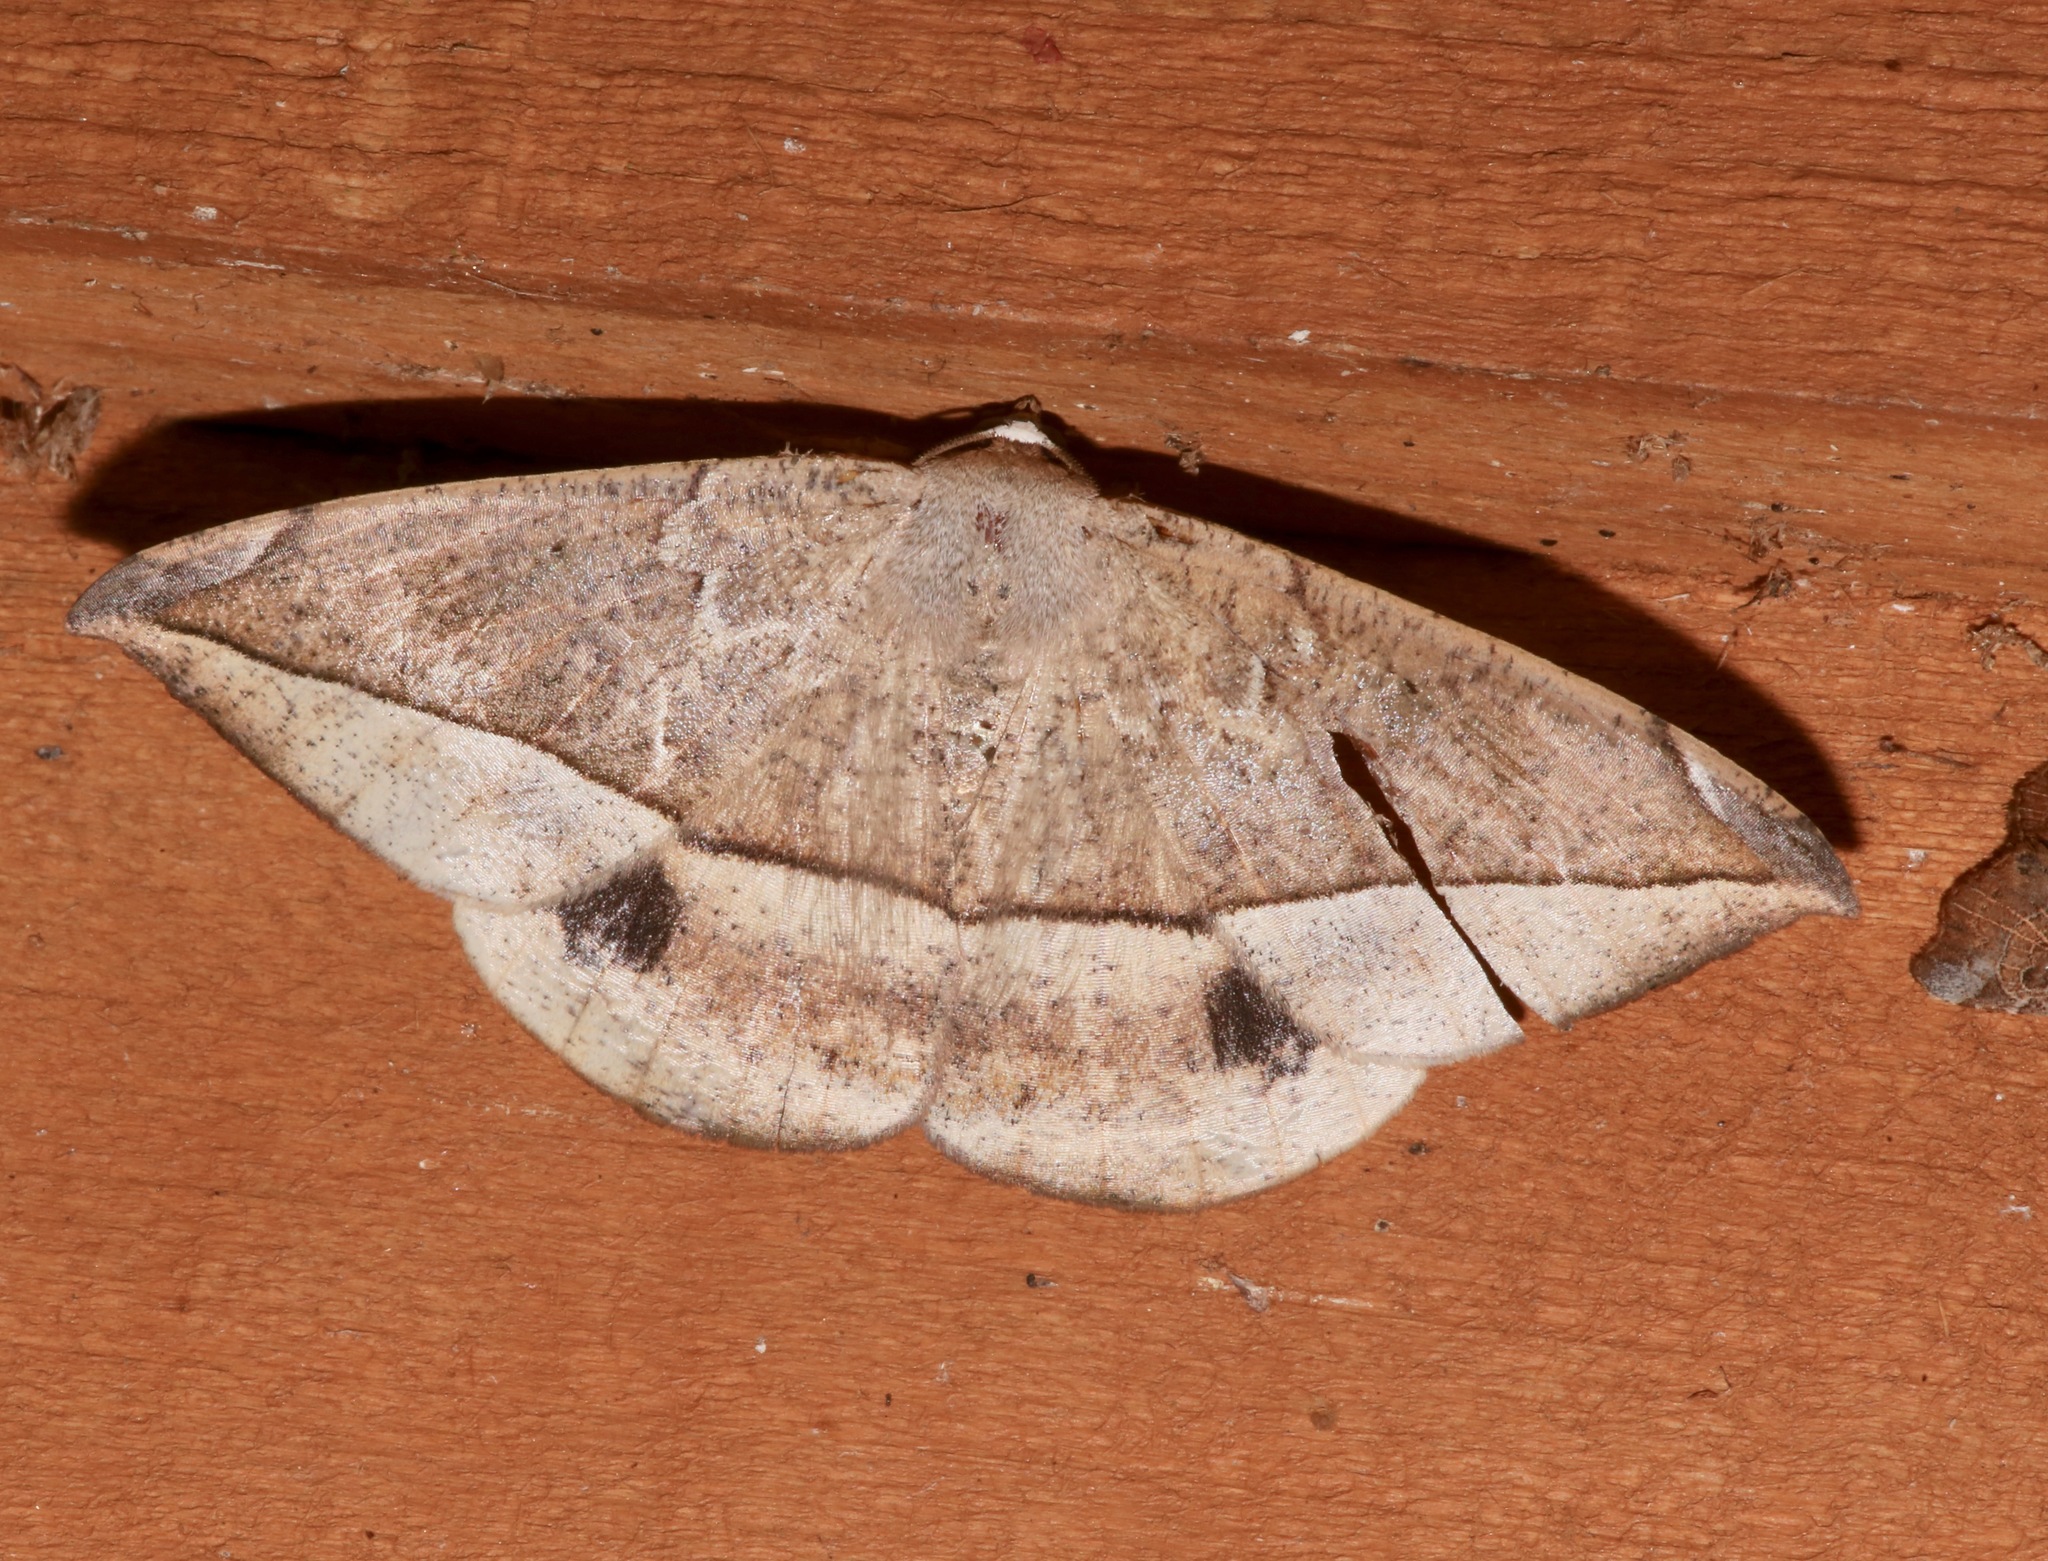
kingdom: Animalia
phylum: Arthropoda
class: Insecta
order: Lepidoptera
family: Geometridae
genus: Oxydia
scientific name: Oxydia vesulia
